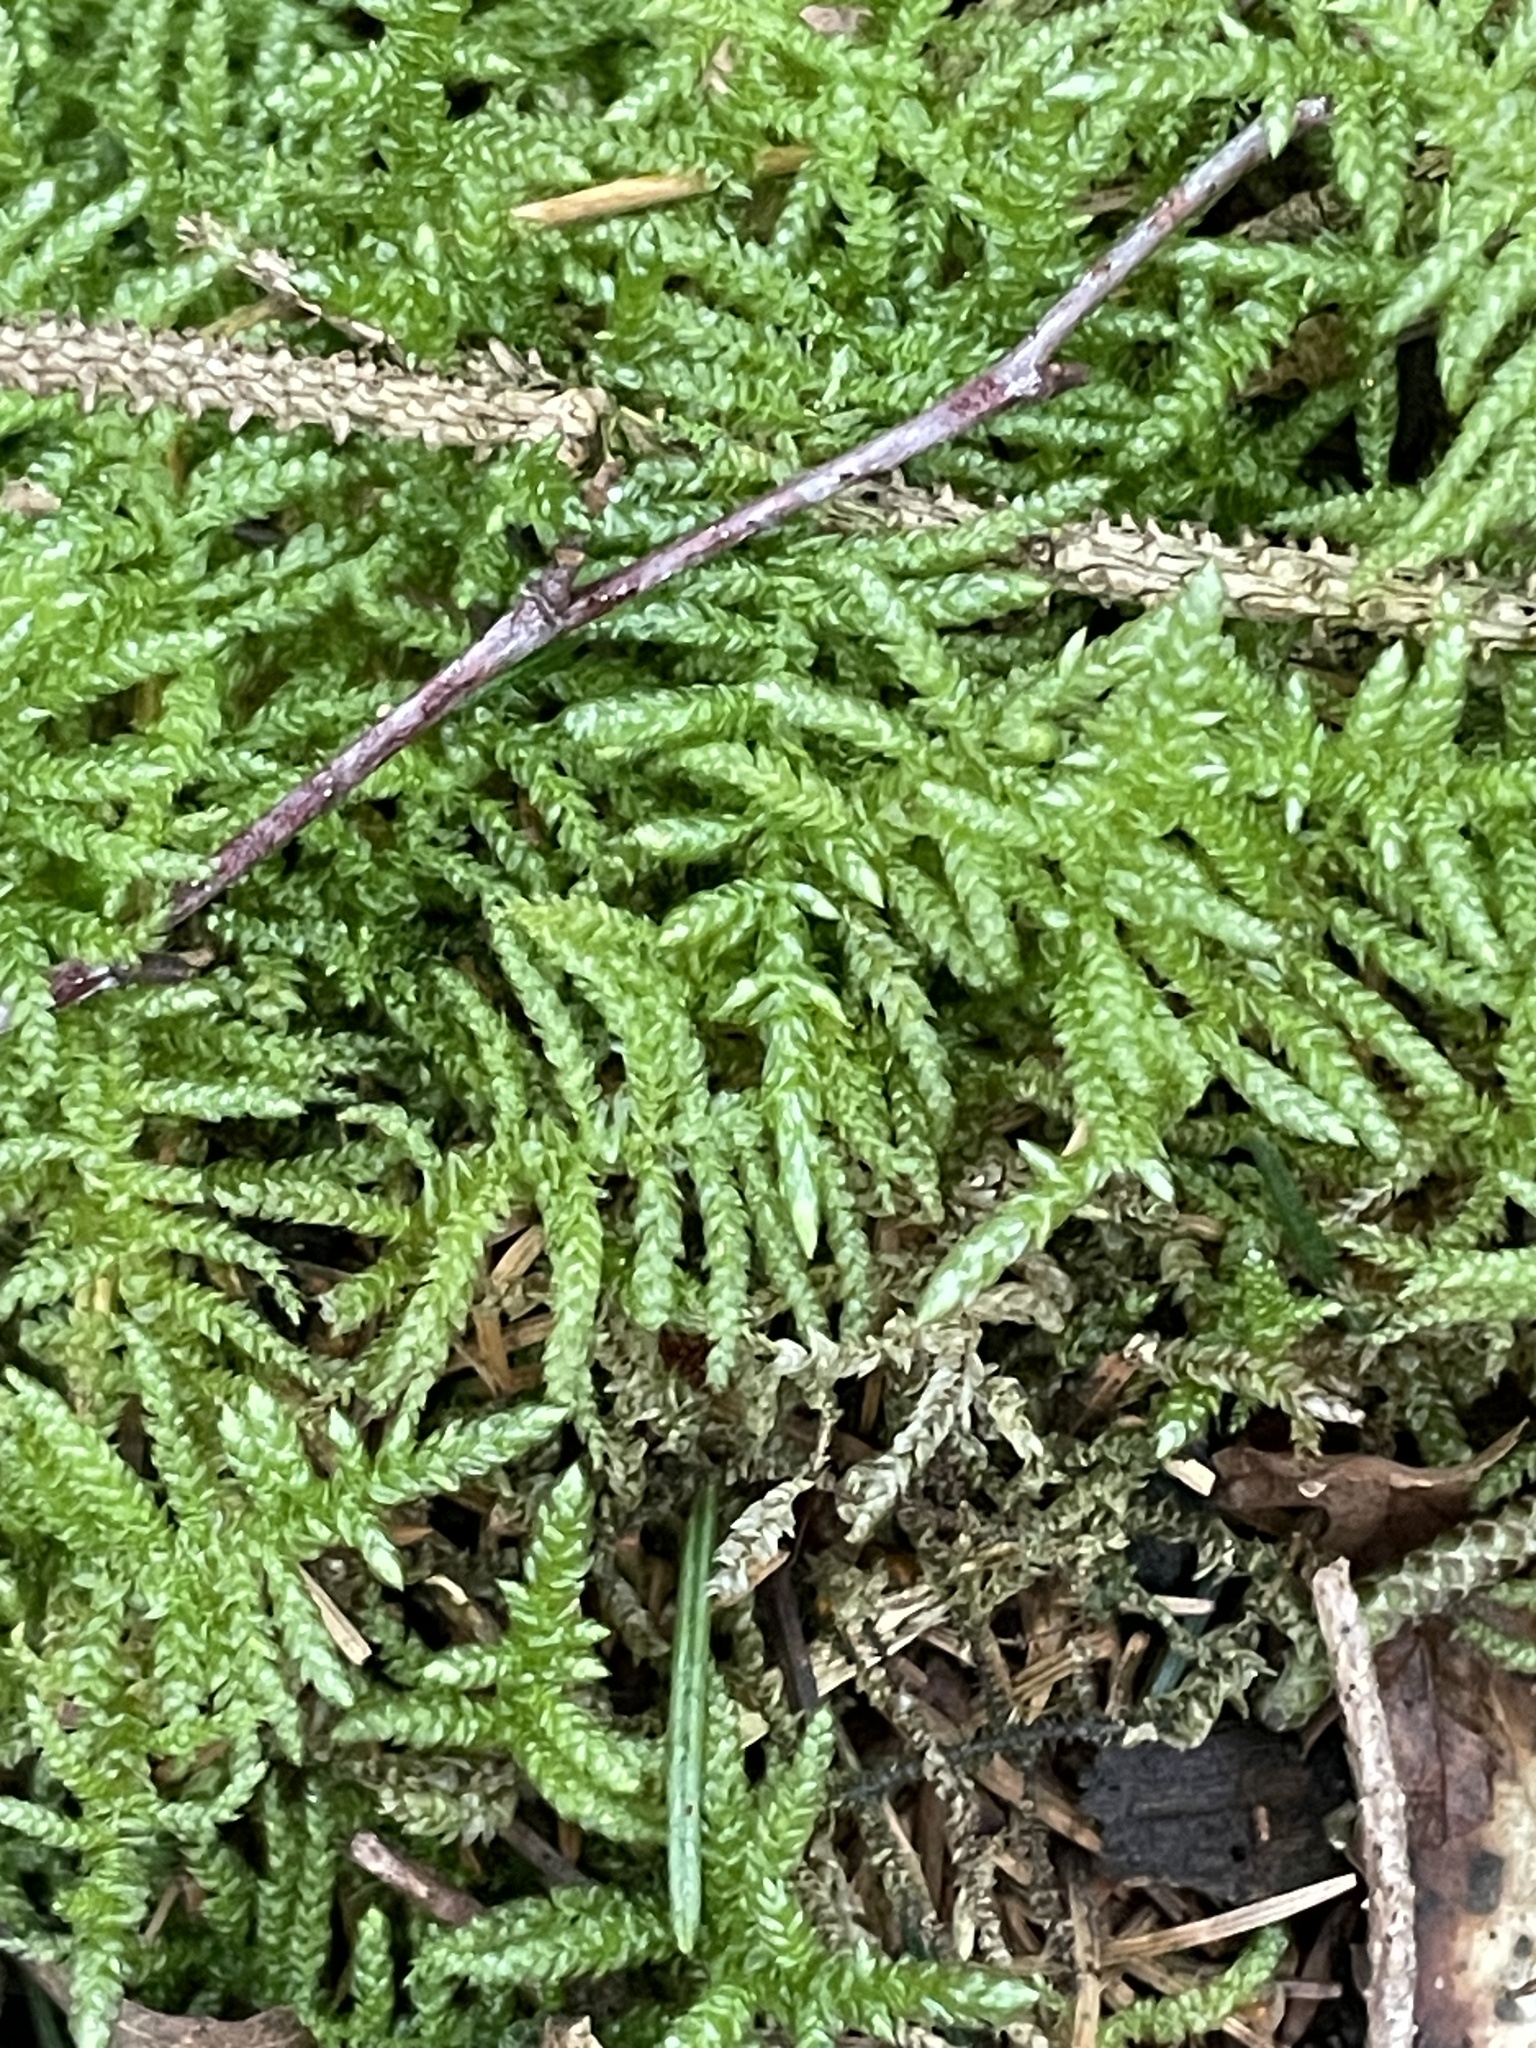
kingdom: Plantae
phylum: Bryophyta
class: Bryopsida
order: Hypnales
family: Brachytheciaceae
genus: Pseudoscleropodium
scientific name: Pseudoscleropodium purum
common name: Neat feather-moss
